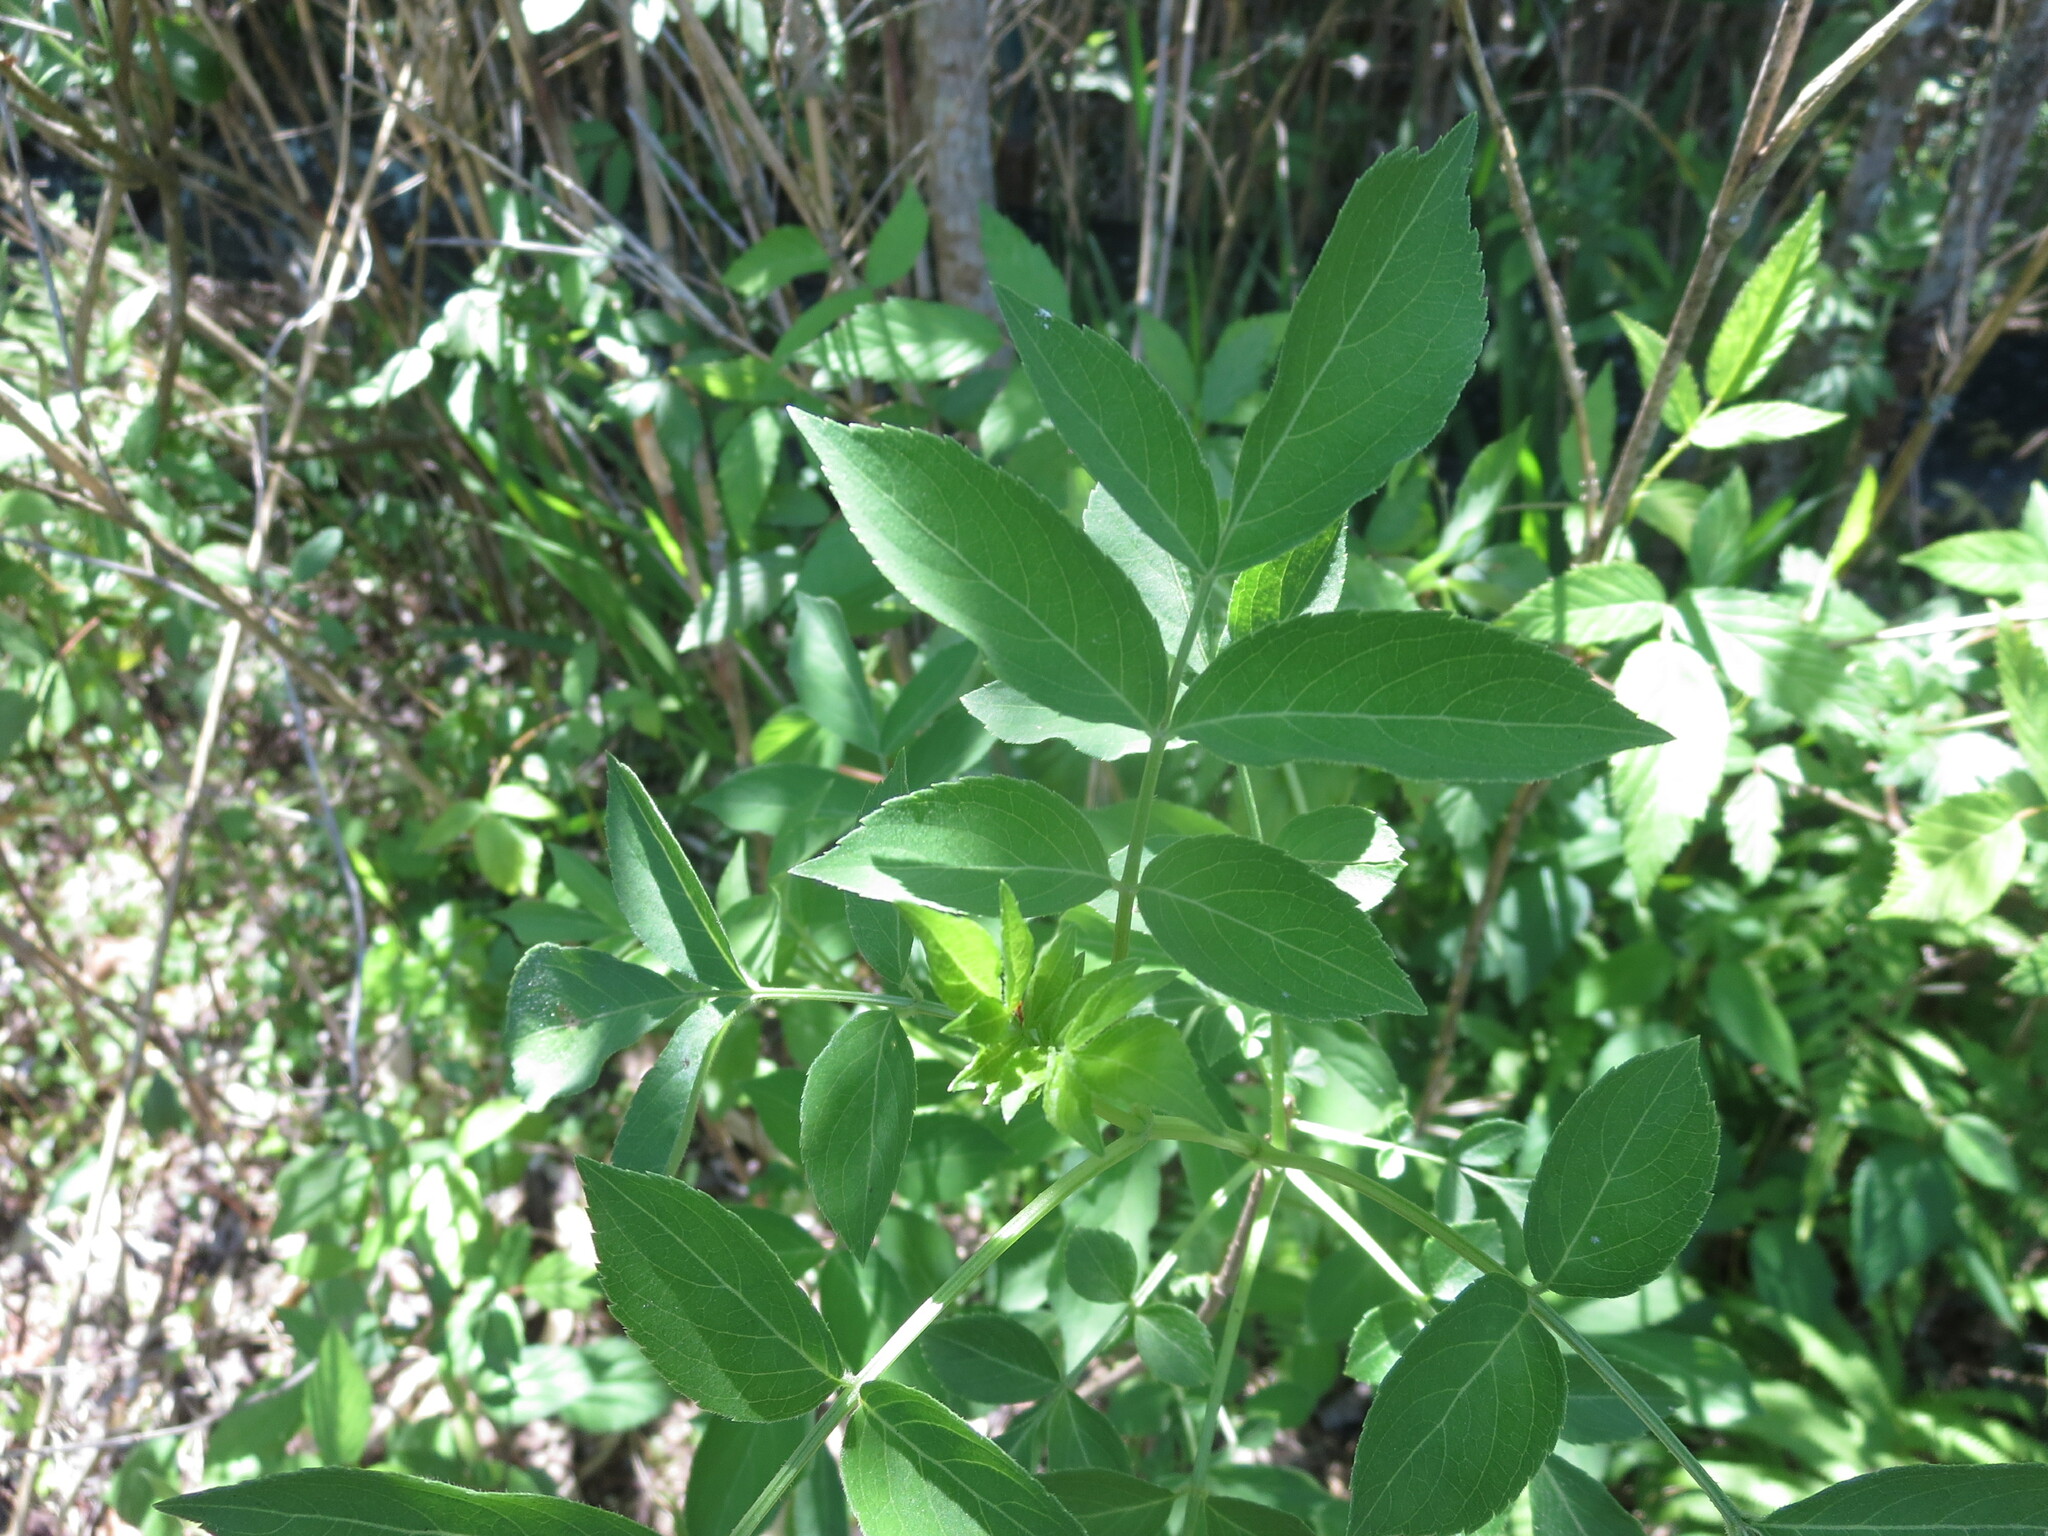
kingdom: Plantae
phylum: Tracheophyta
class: Magnoliopsida
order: Dipsacales
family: Viburnaceae
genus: Sambucus
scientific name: Sambucus canadensis
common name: American elder
